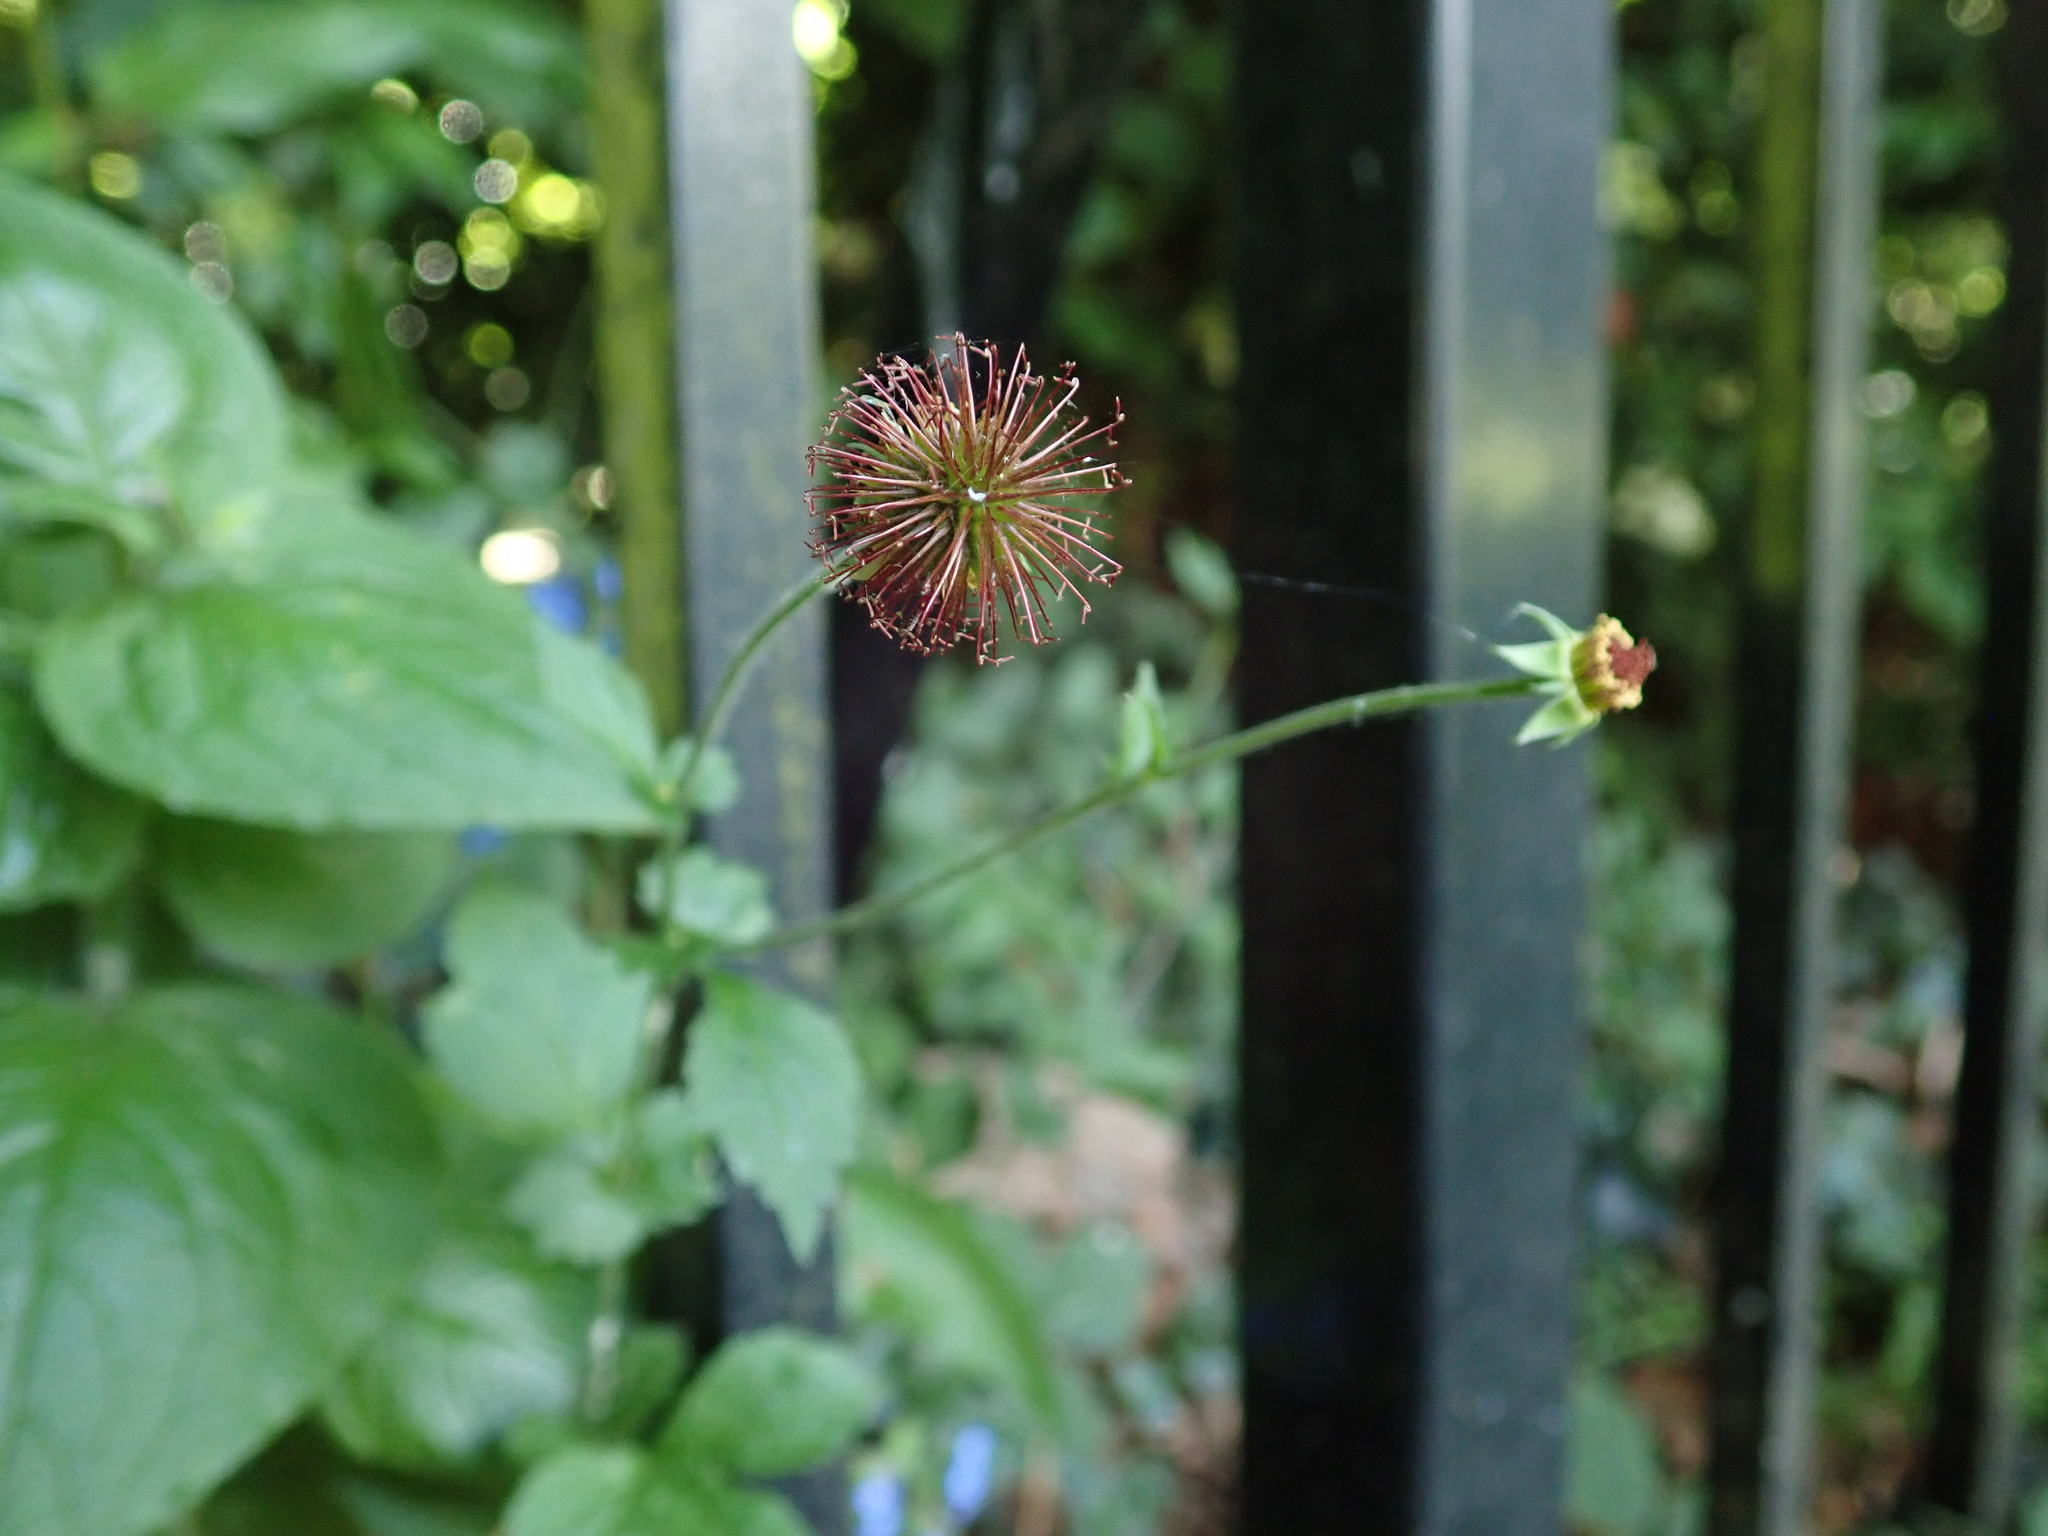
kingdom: Plantae
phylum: Tracheophyta
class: Magnoliopsida
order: Rosales
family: Rosaceae
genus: Geum
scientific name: Geum urbanum
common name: Wood avens
